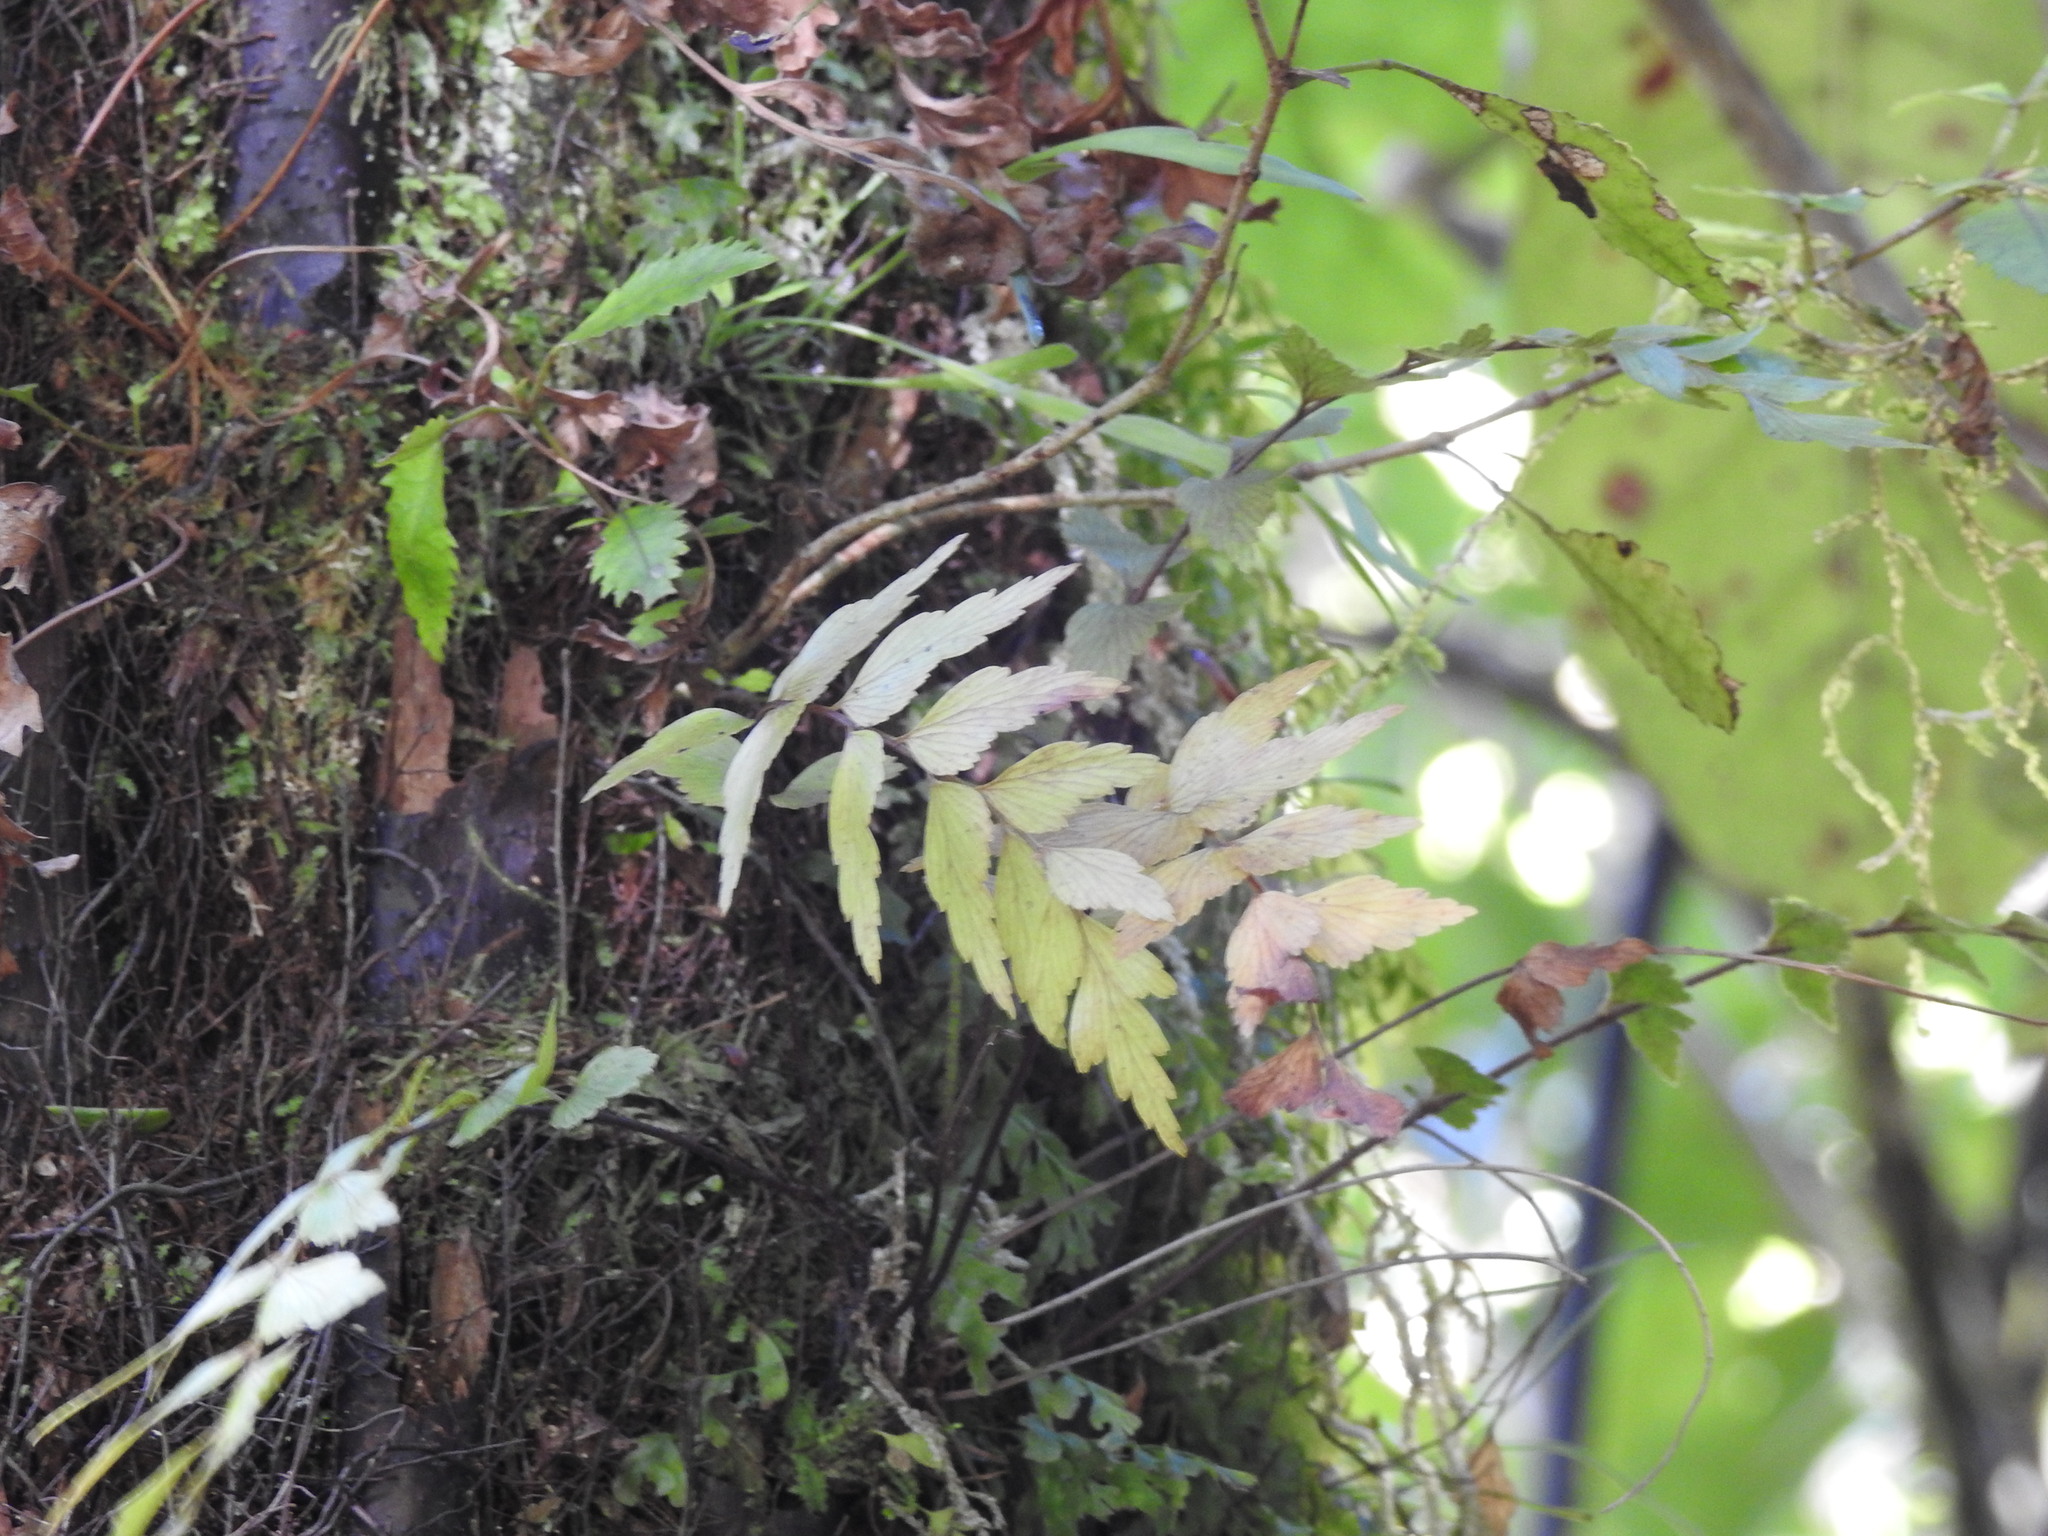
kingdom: Plantae
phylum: Tracheophyta
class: Polypodiopsida
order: Polypodiales
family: Aspleniaceae
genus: Asplenium
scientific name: Asplenium polyodon
